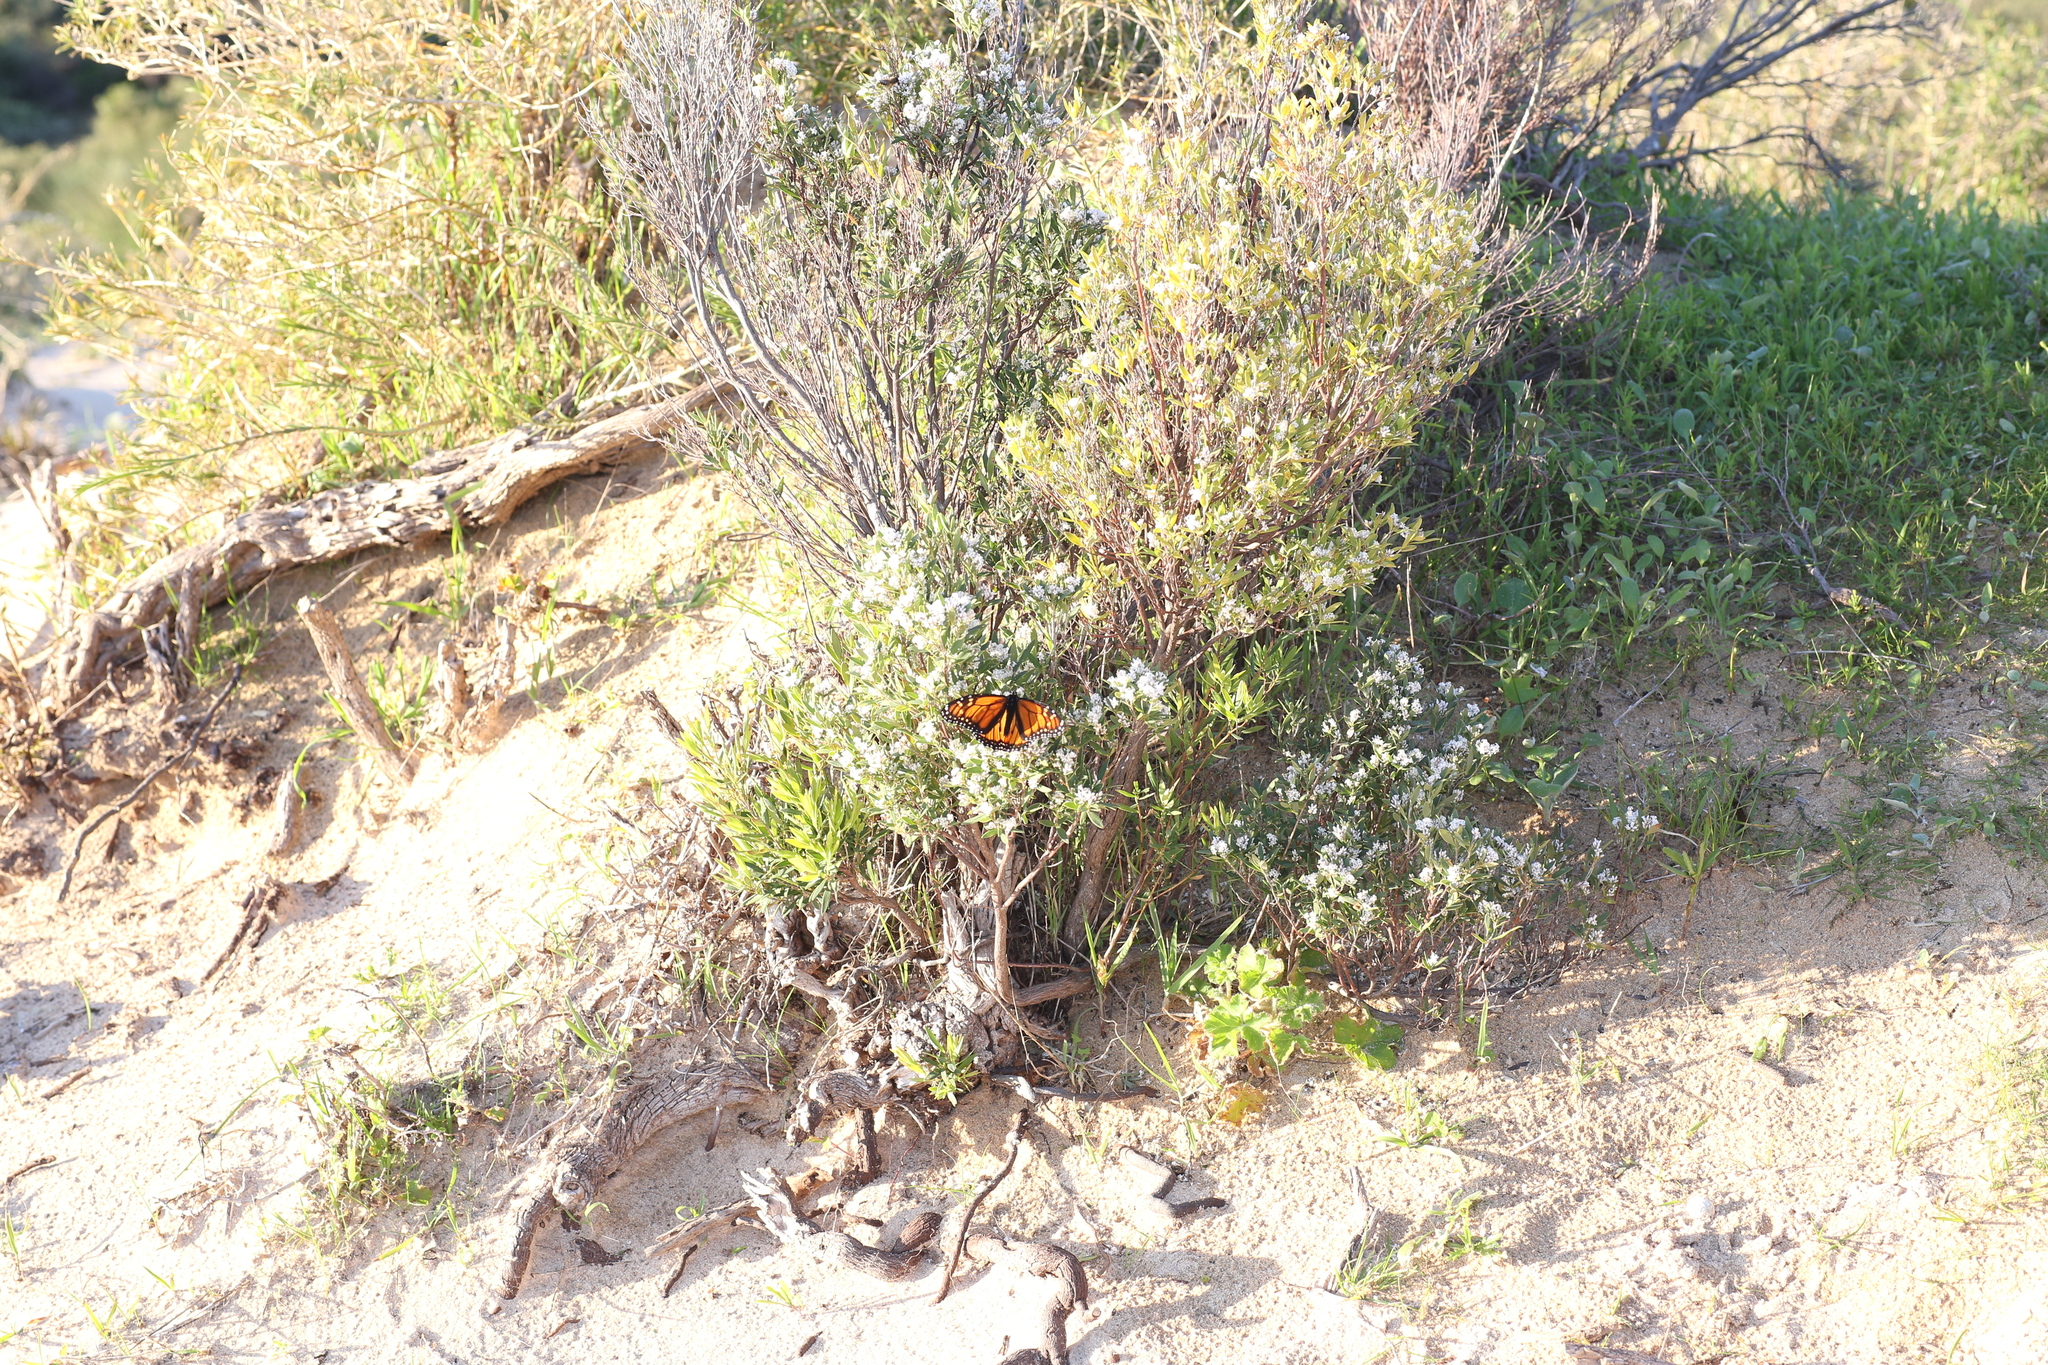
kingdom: Animalia
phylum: Arthropoda
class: Insecta
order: Lepidoptera
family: Nymphalidae
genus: Danaus
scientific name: Danaus plexippus
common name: Monarch
